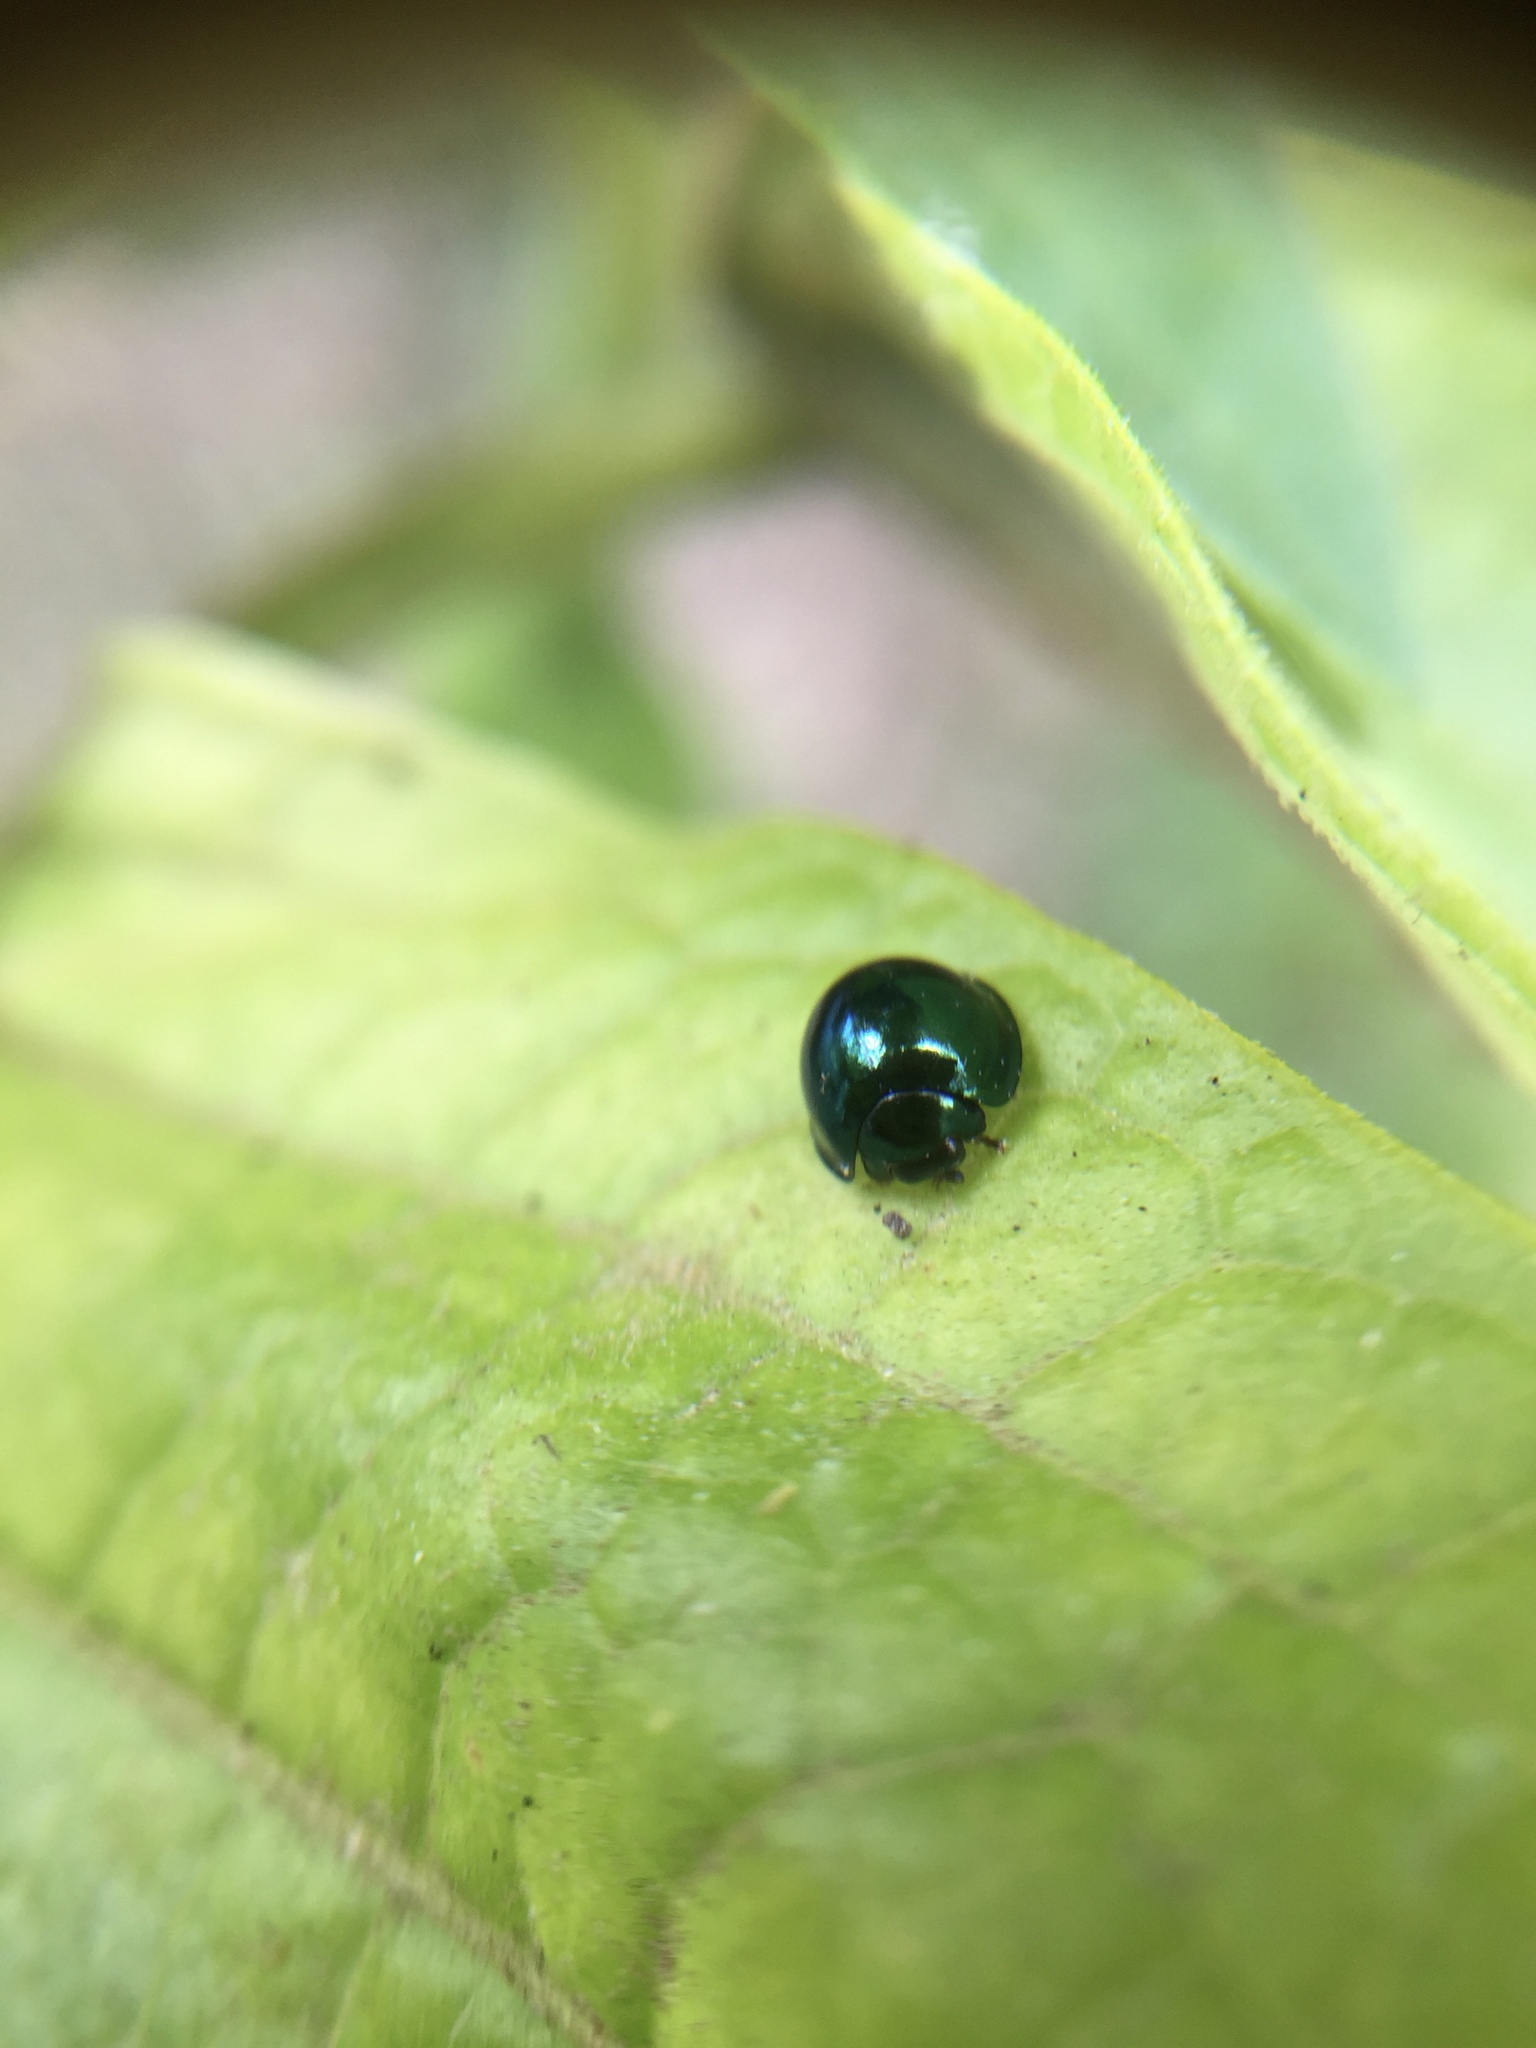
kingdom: Animalia
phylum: Arthropoda
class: Insecta
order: Coleoptera
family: Coccinellidae
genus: Halmus
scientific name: Halmus chalybeus
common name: Steel blue ladybird beetle
